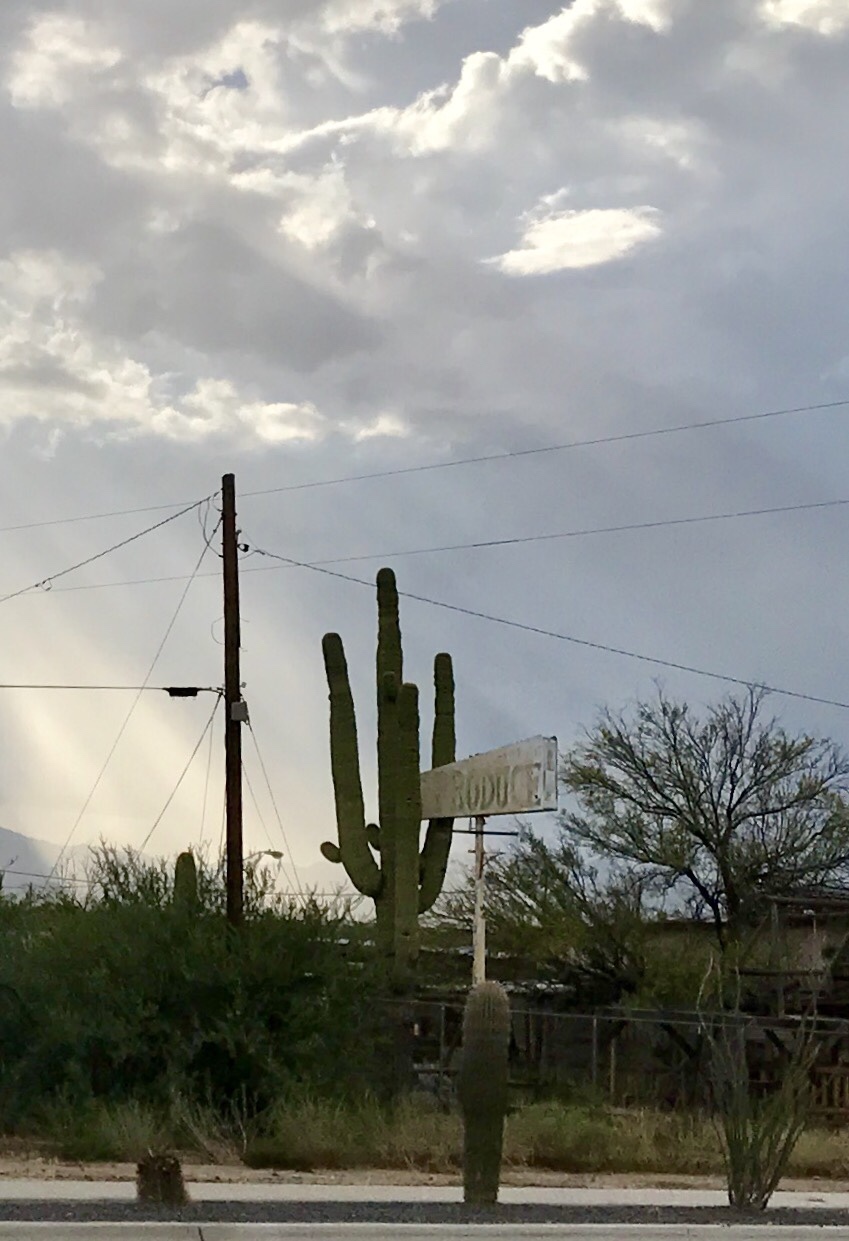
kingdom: Plantae
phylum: Tracheophyta
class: Magnoliopsida
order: Caryophyllales
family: Cactaceae
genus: Carnegiea
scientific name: Carnegiea gigantea
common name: Saguaro
